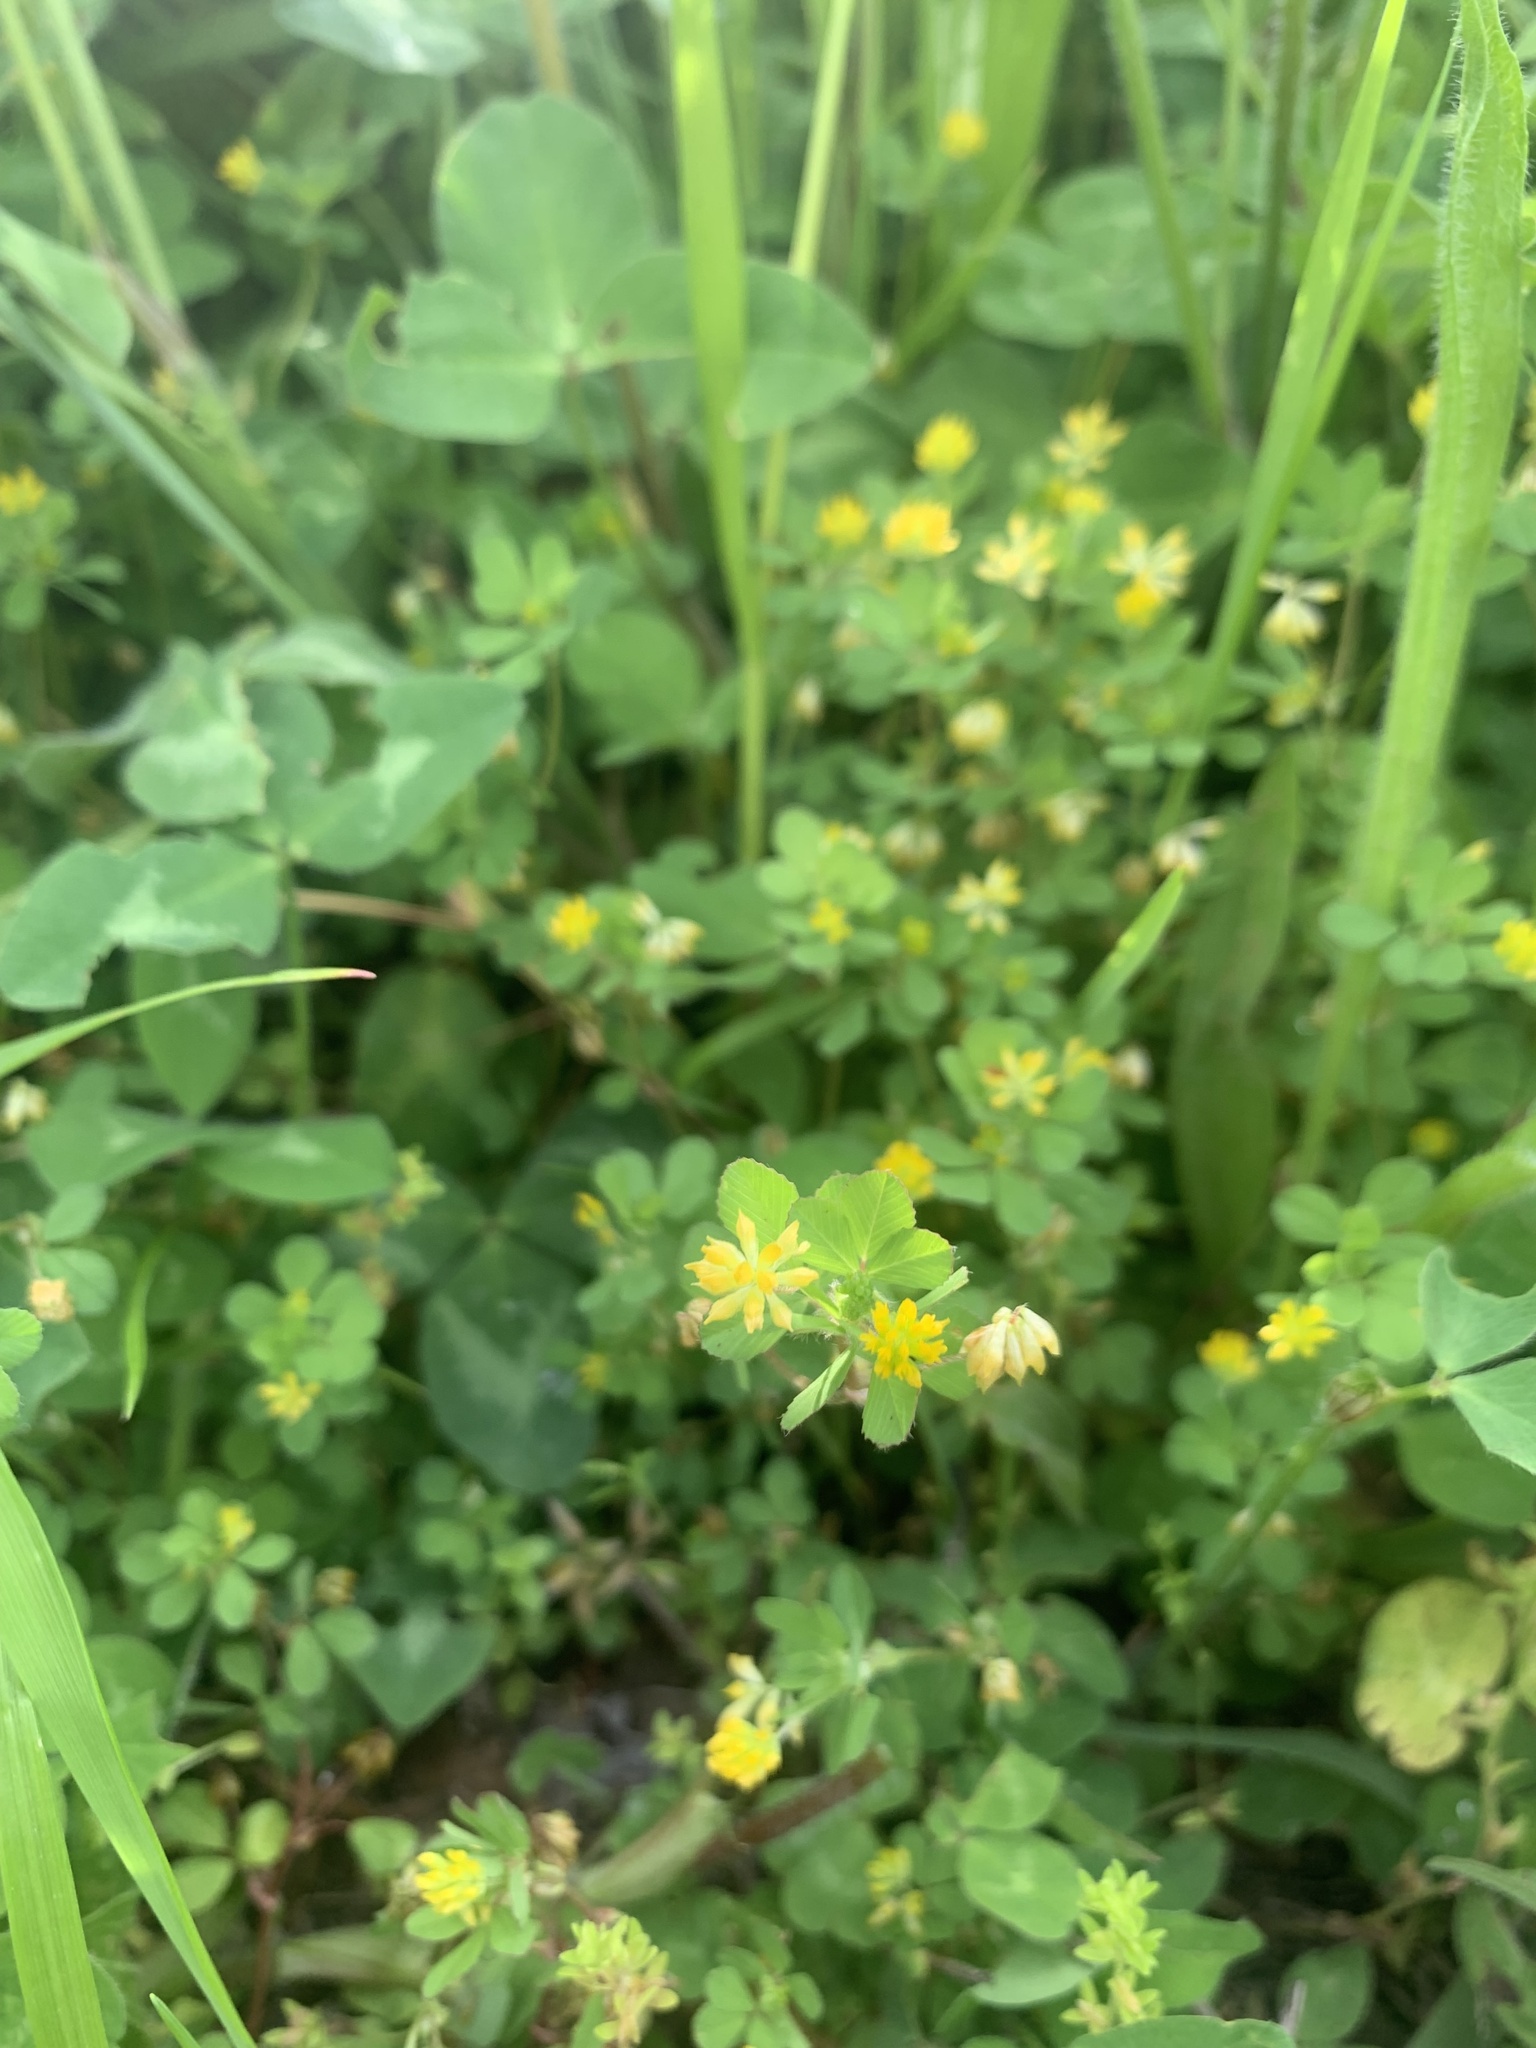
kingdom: Plantae
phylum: Tracheophyta
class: Magnoliopsida
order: Fabales
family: Fabaceae
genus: Trifolium
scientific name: Trifolium dubium
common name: Suckling clover
